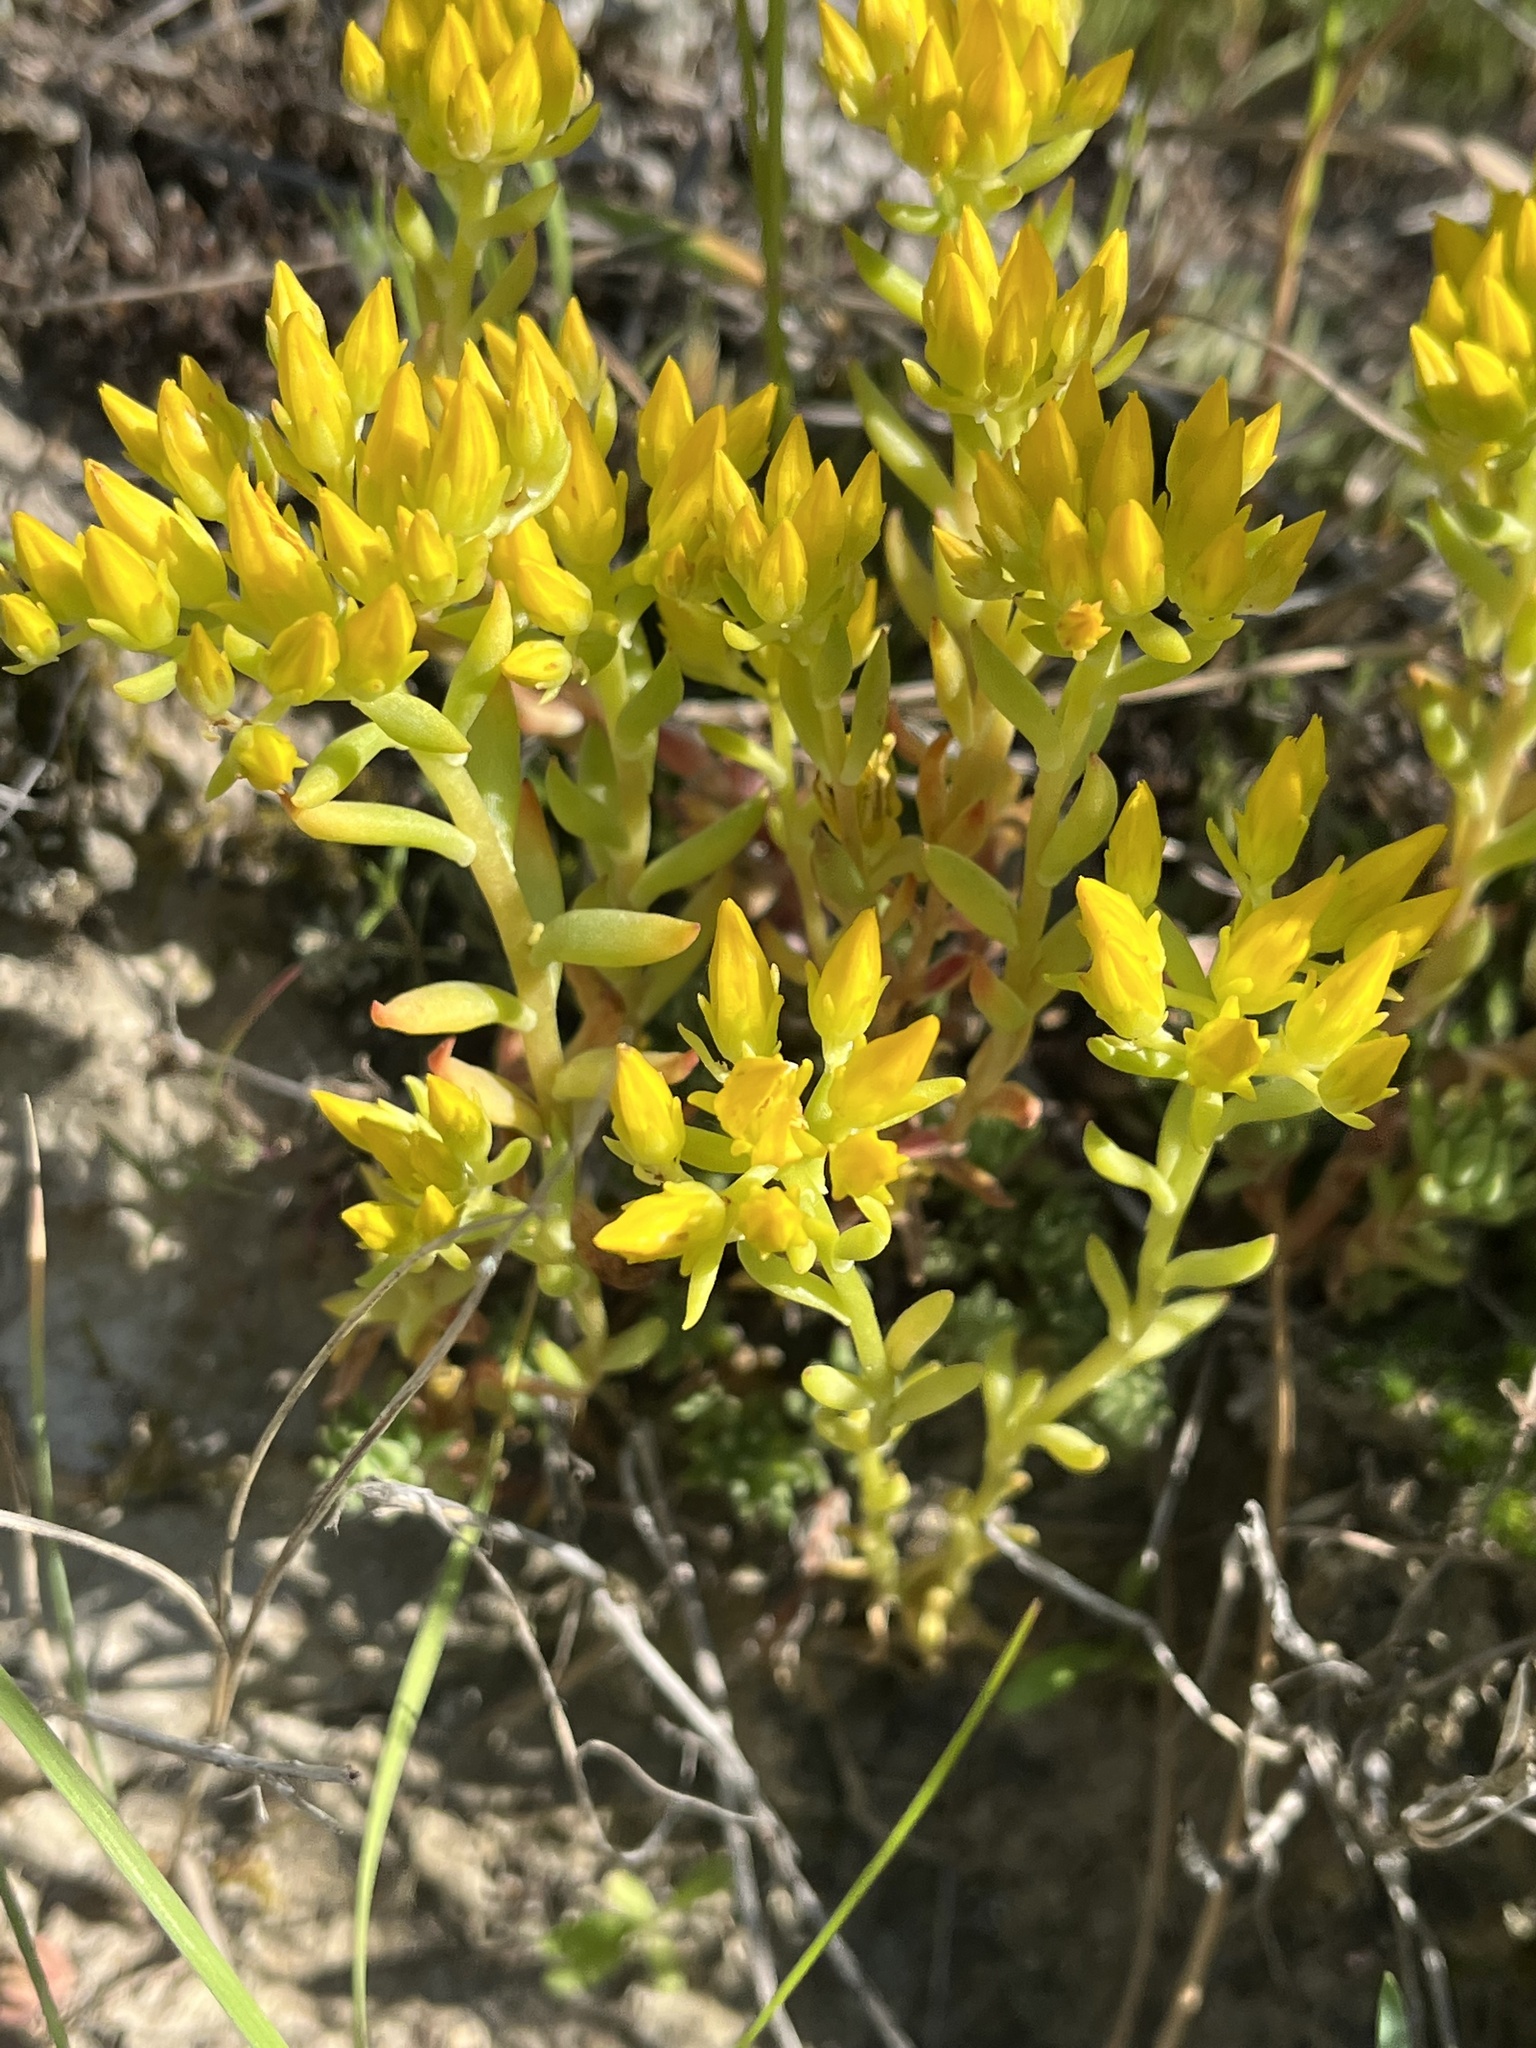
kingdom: Plantae
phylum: Tracheophyta
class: Magnoliopsida
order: Saxifragales
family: Crassulaceae
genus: Sedum
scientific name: Sedum lanceolatum
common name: Common stonecrop
